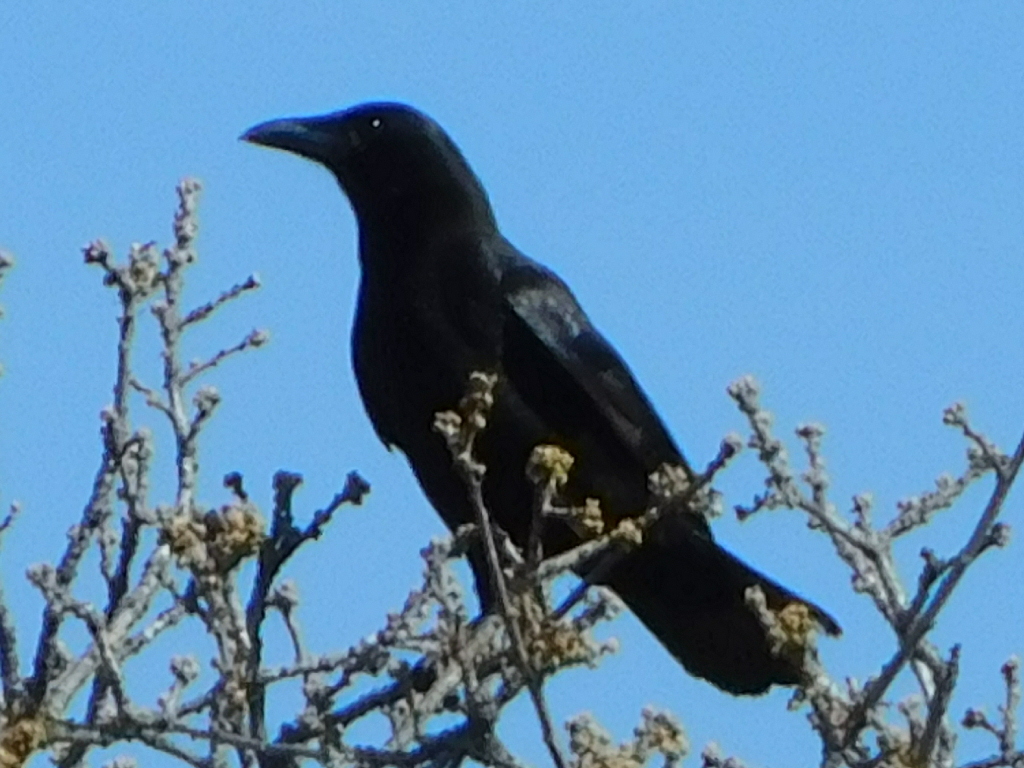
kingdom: Animalia
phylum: Chordata
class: Aves
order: Passeriformes
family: Corvidae
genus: Corvus
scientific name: Corvus brachyrhynchos
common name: American crow
